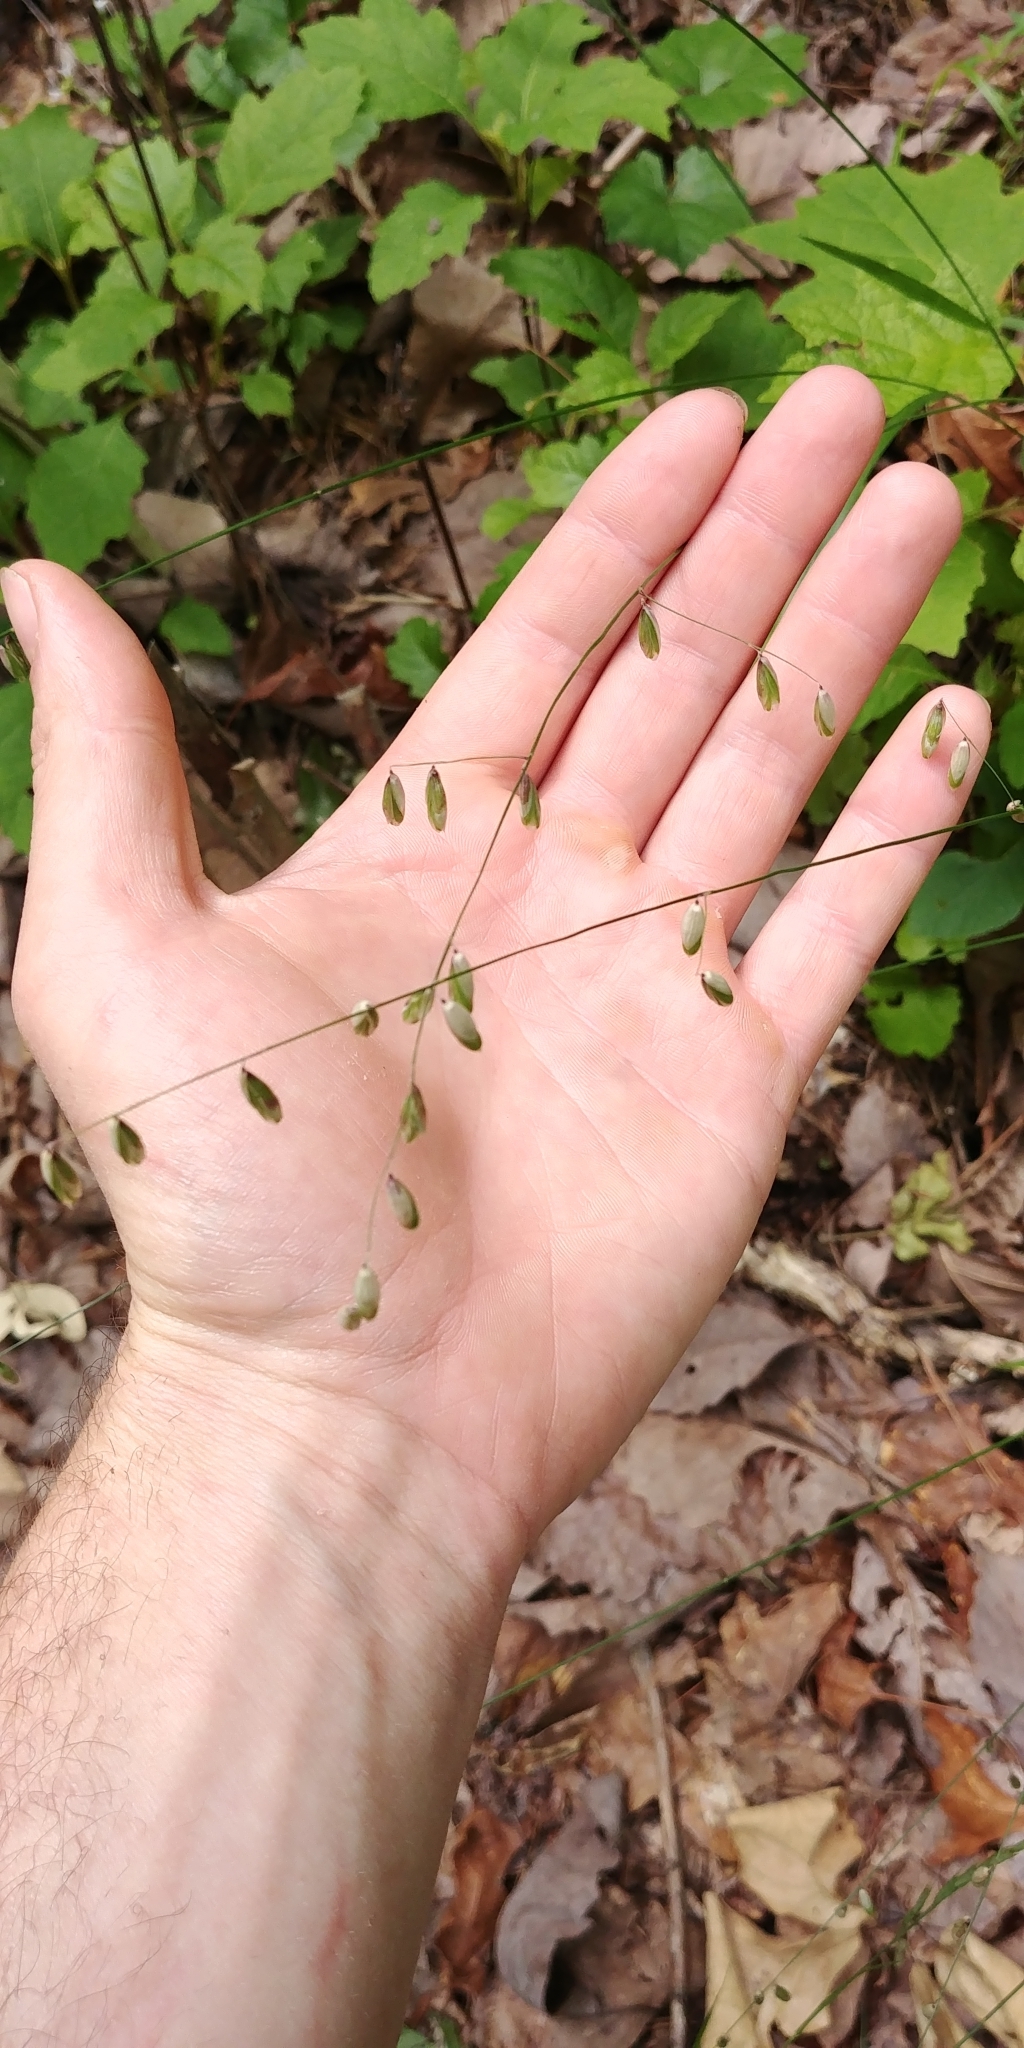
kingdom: Plantae
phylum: Tracheophyta
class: Liliopsida
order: Poales
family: Poaceae
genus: Melica
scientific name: Melica mutica
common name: Two-flower melic
